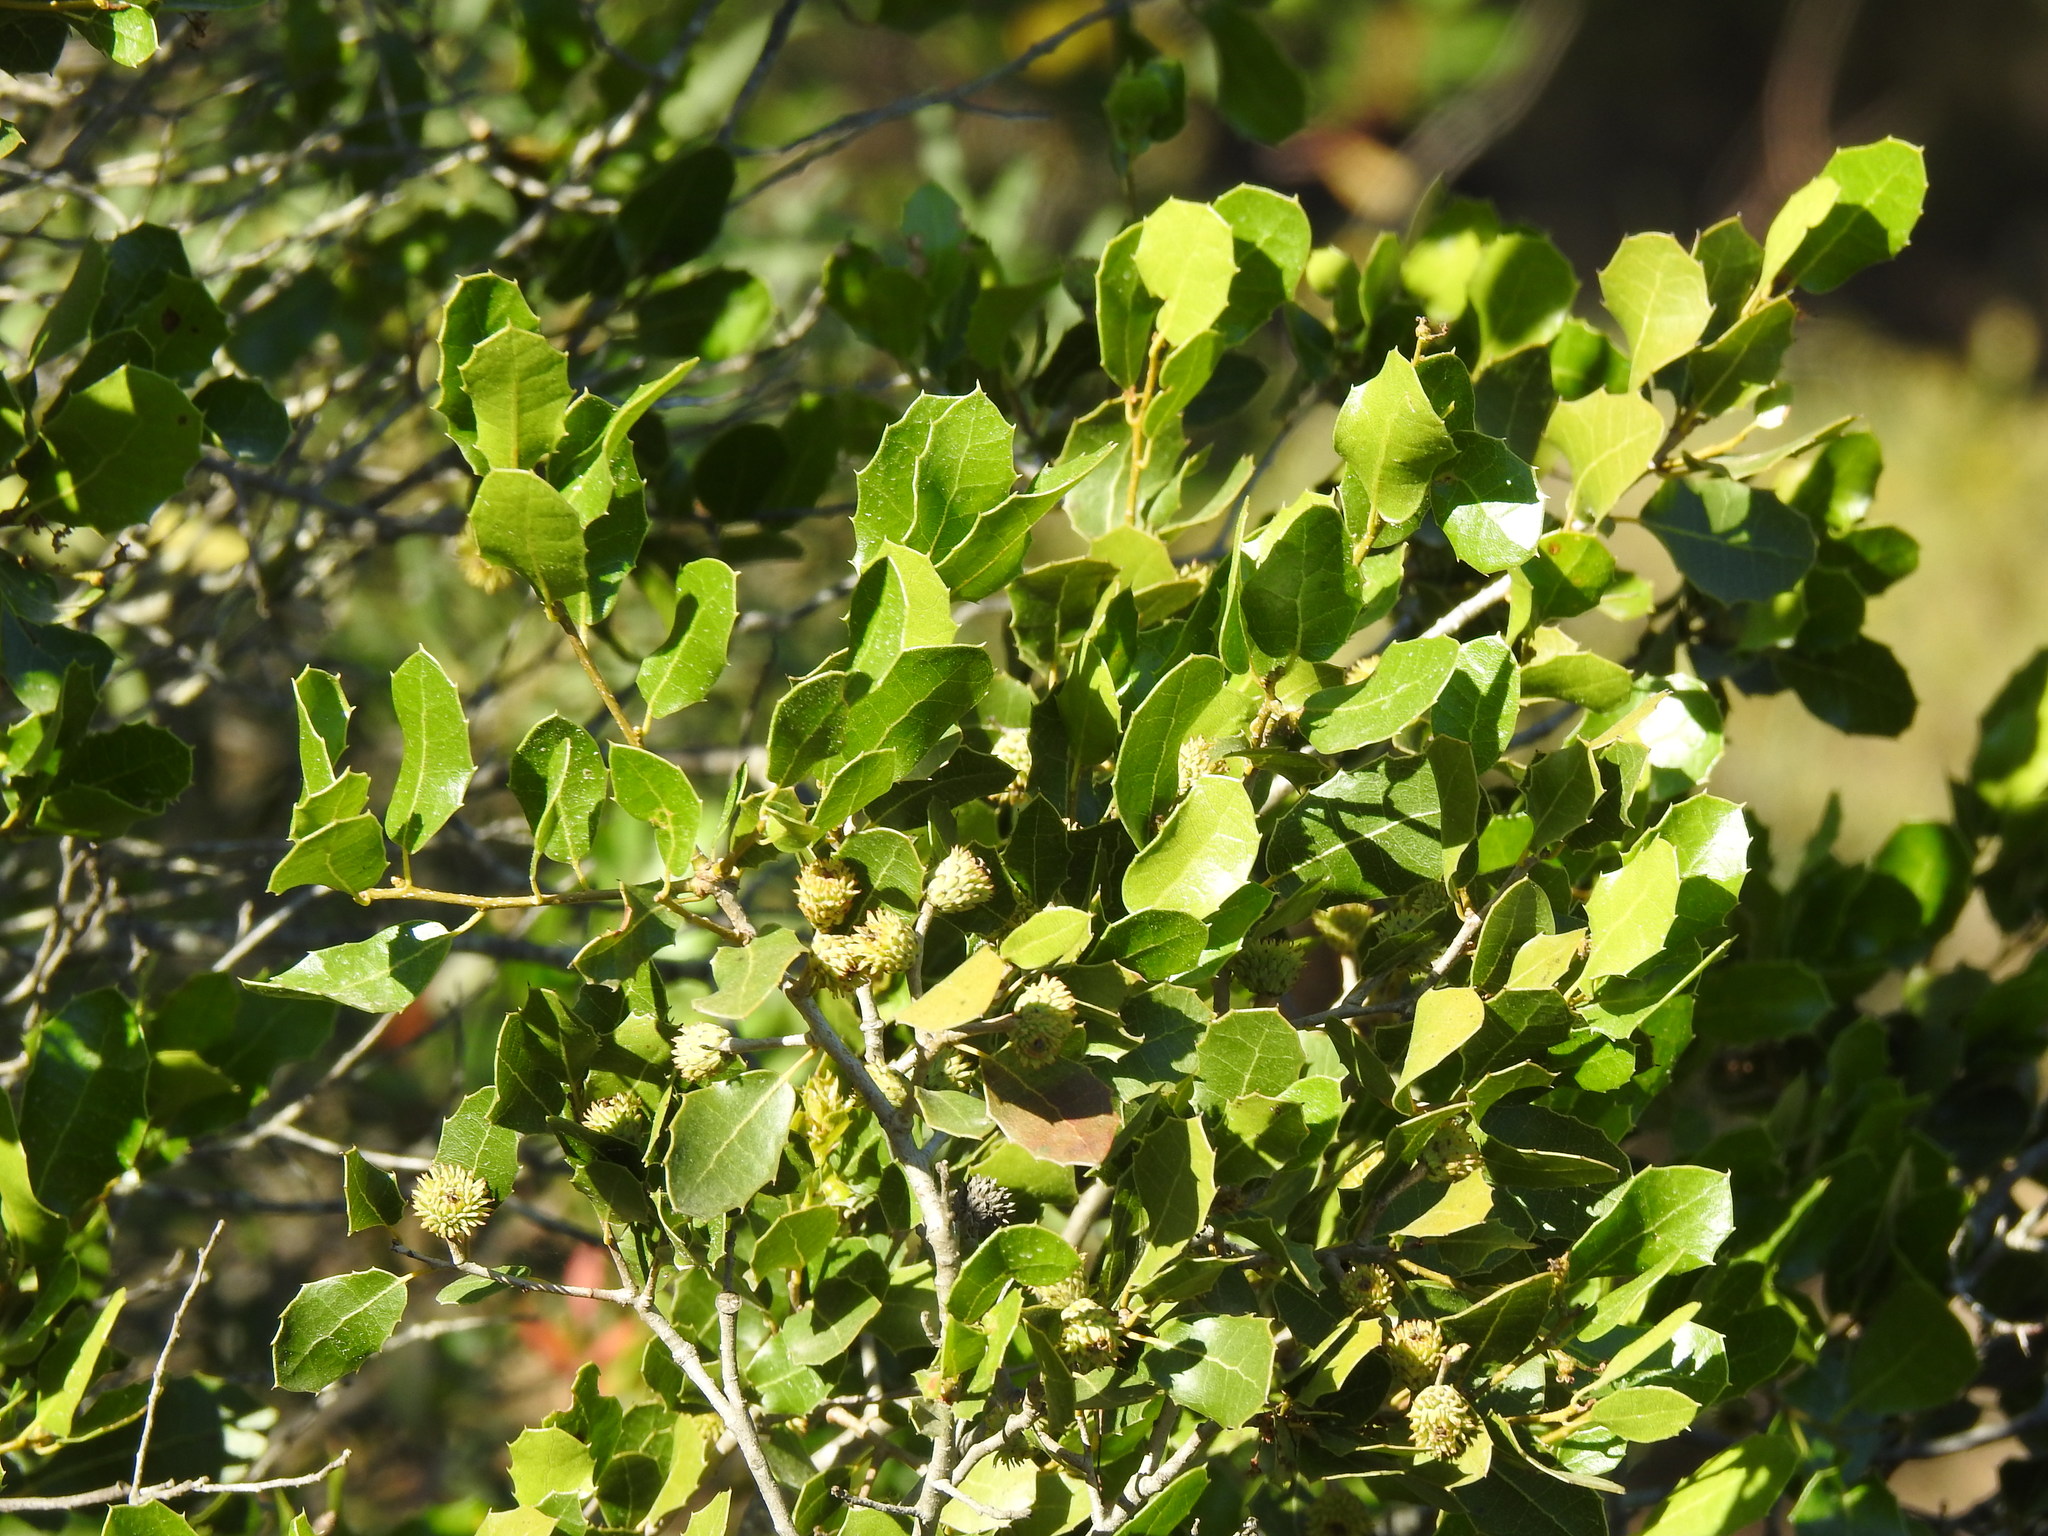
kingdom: Plantae
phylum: Tracheophyta
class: Magnoliopsida
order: Fagales
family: Fagaceae
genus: Quercus
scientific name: Quercus coccifera
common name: Kermes oak
